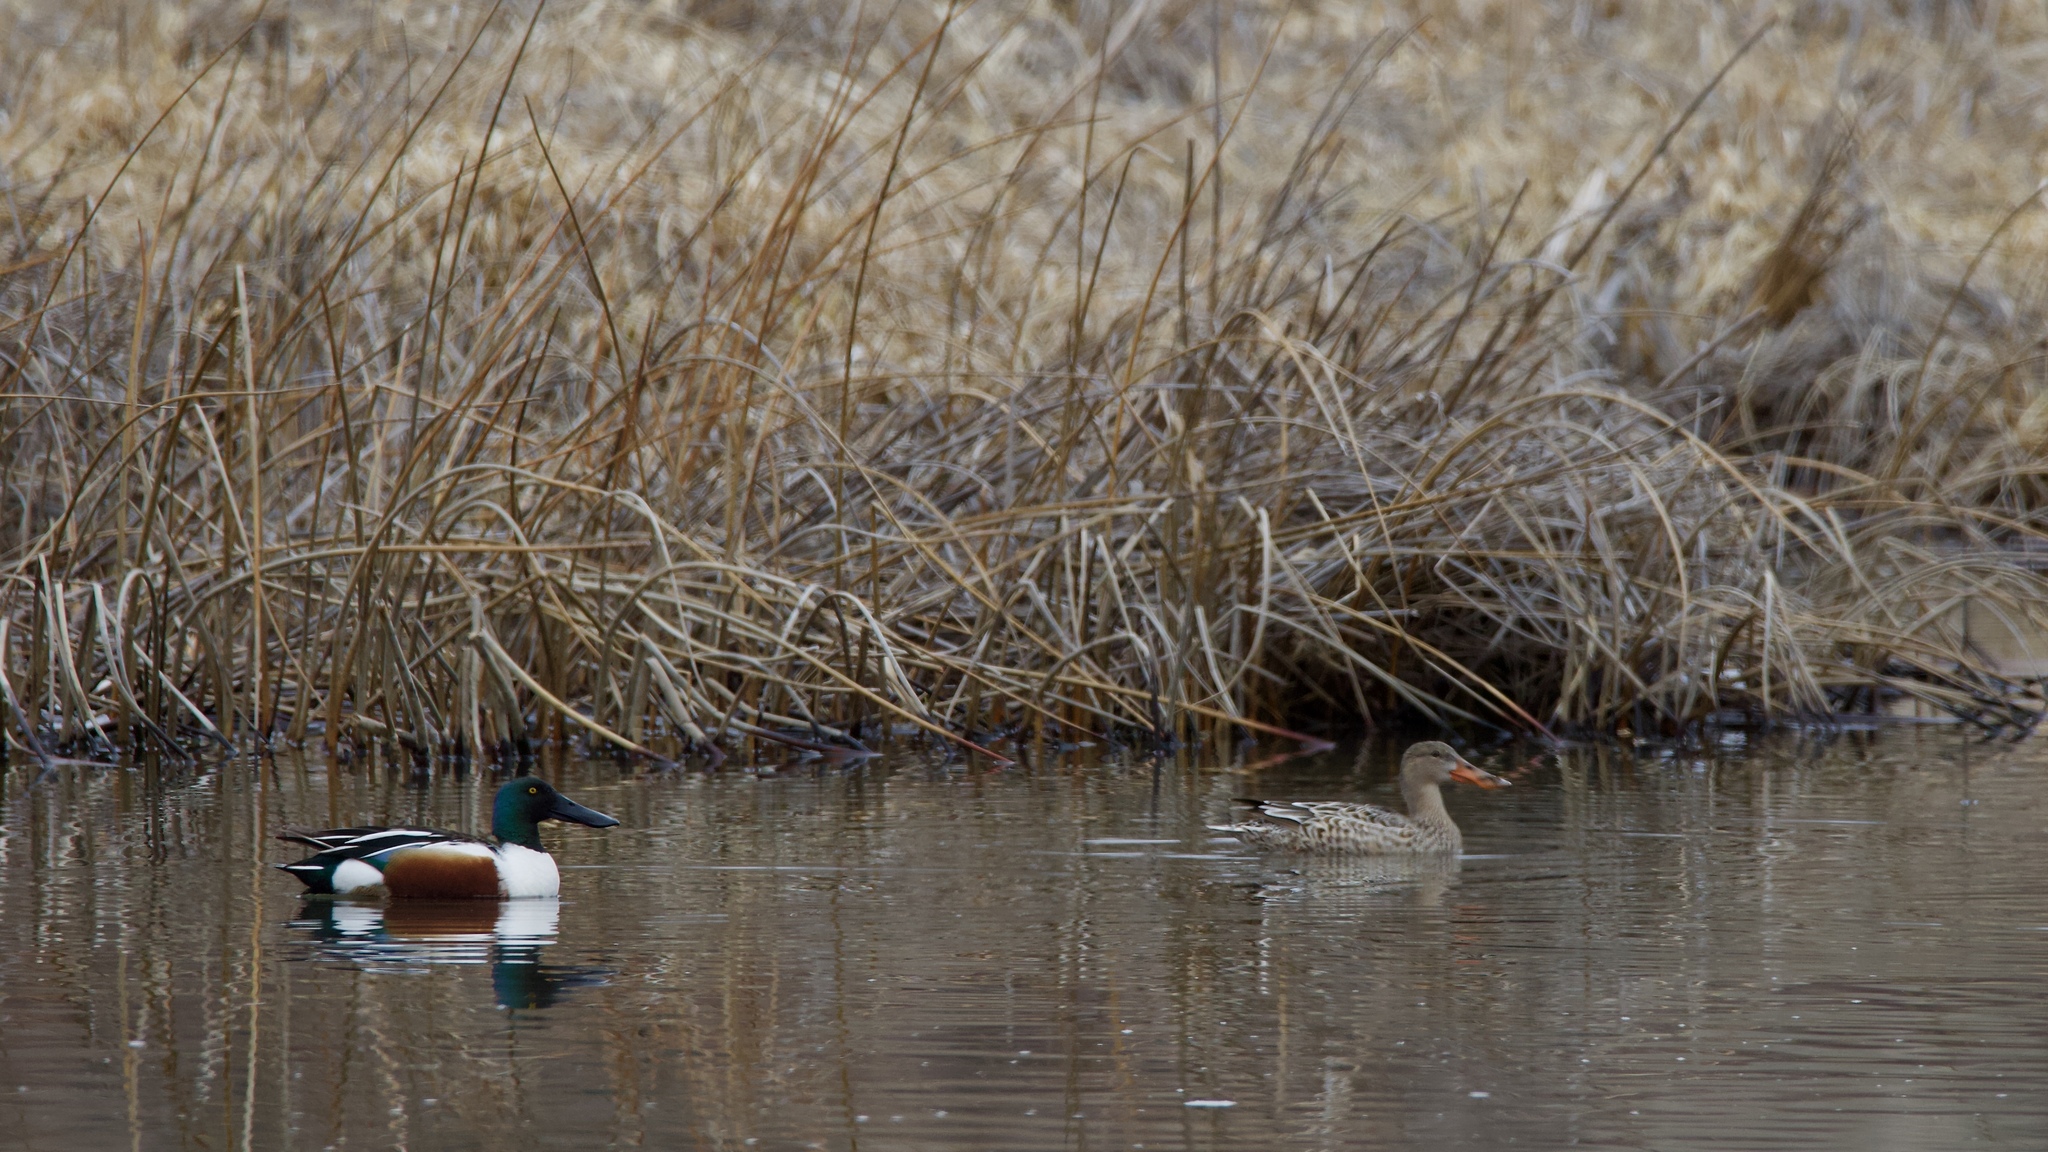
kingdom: Animalia
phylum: Chordata
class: Aves
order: Anseriformes
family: Anatidae
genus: Spatula
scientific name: Spatula clypeata
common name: Northern shoveler
